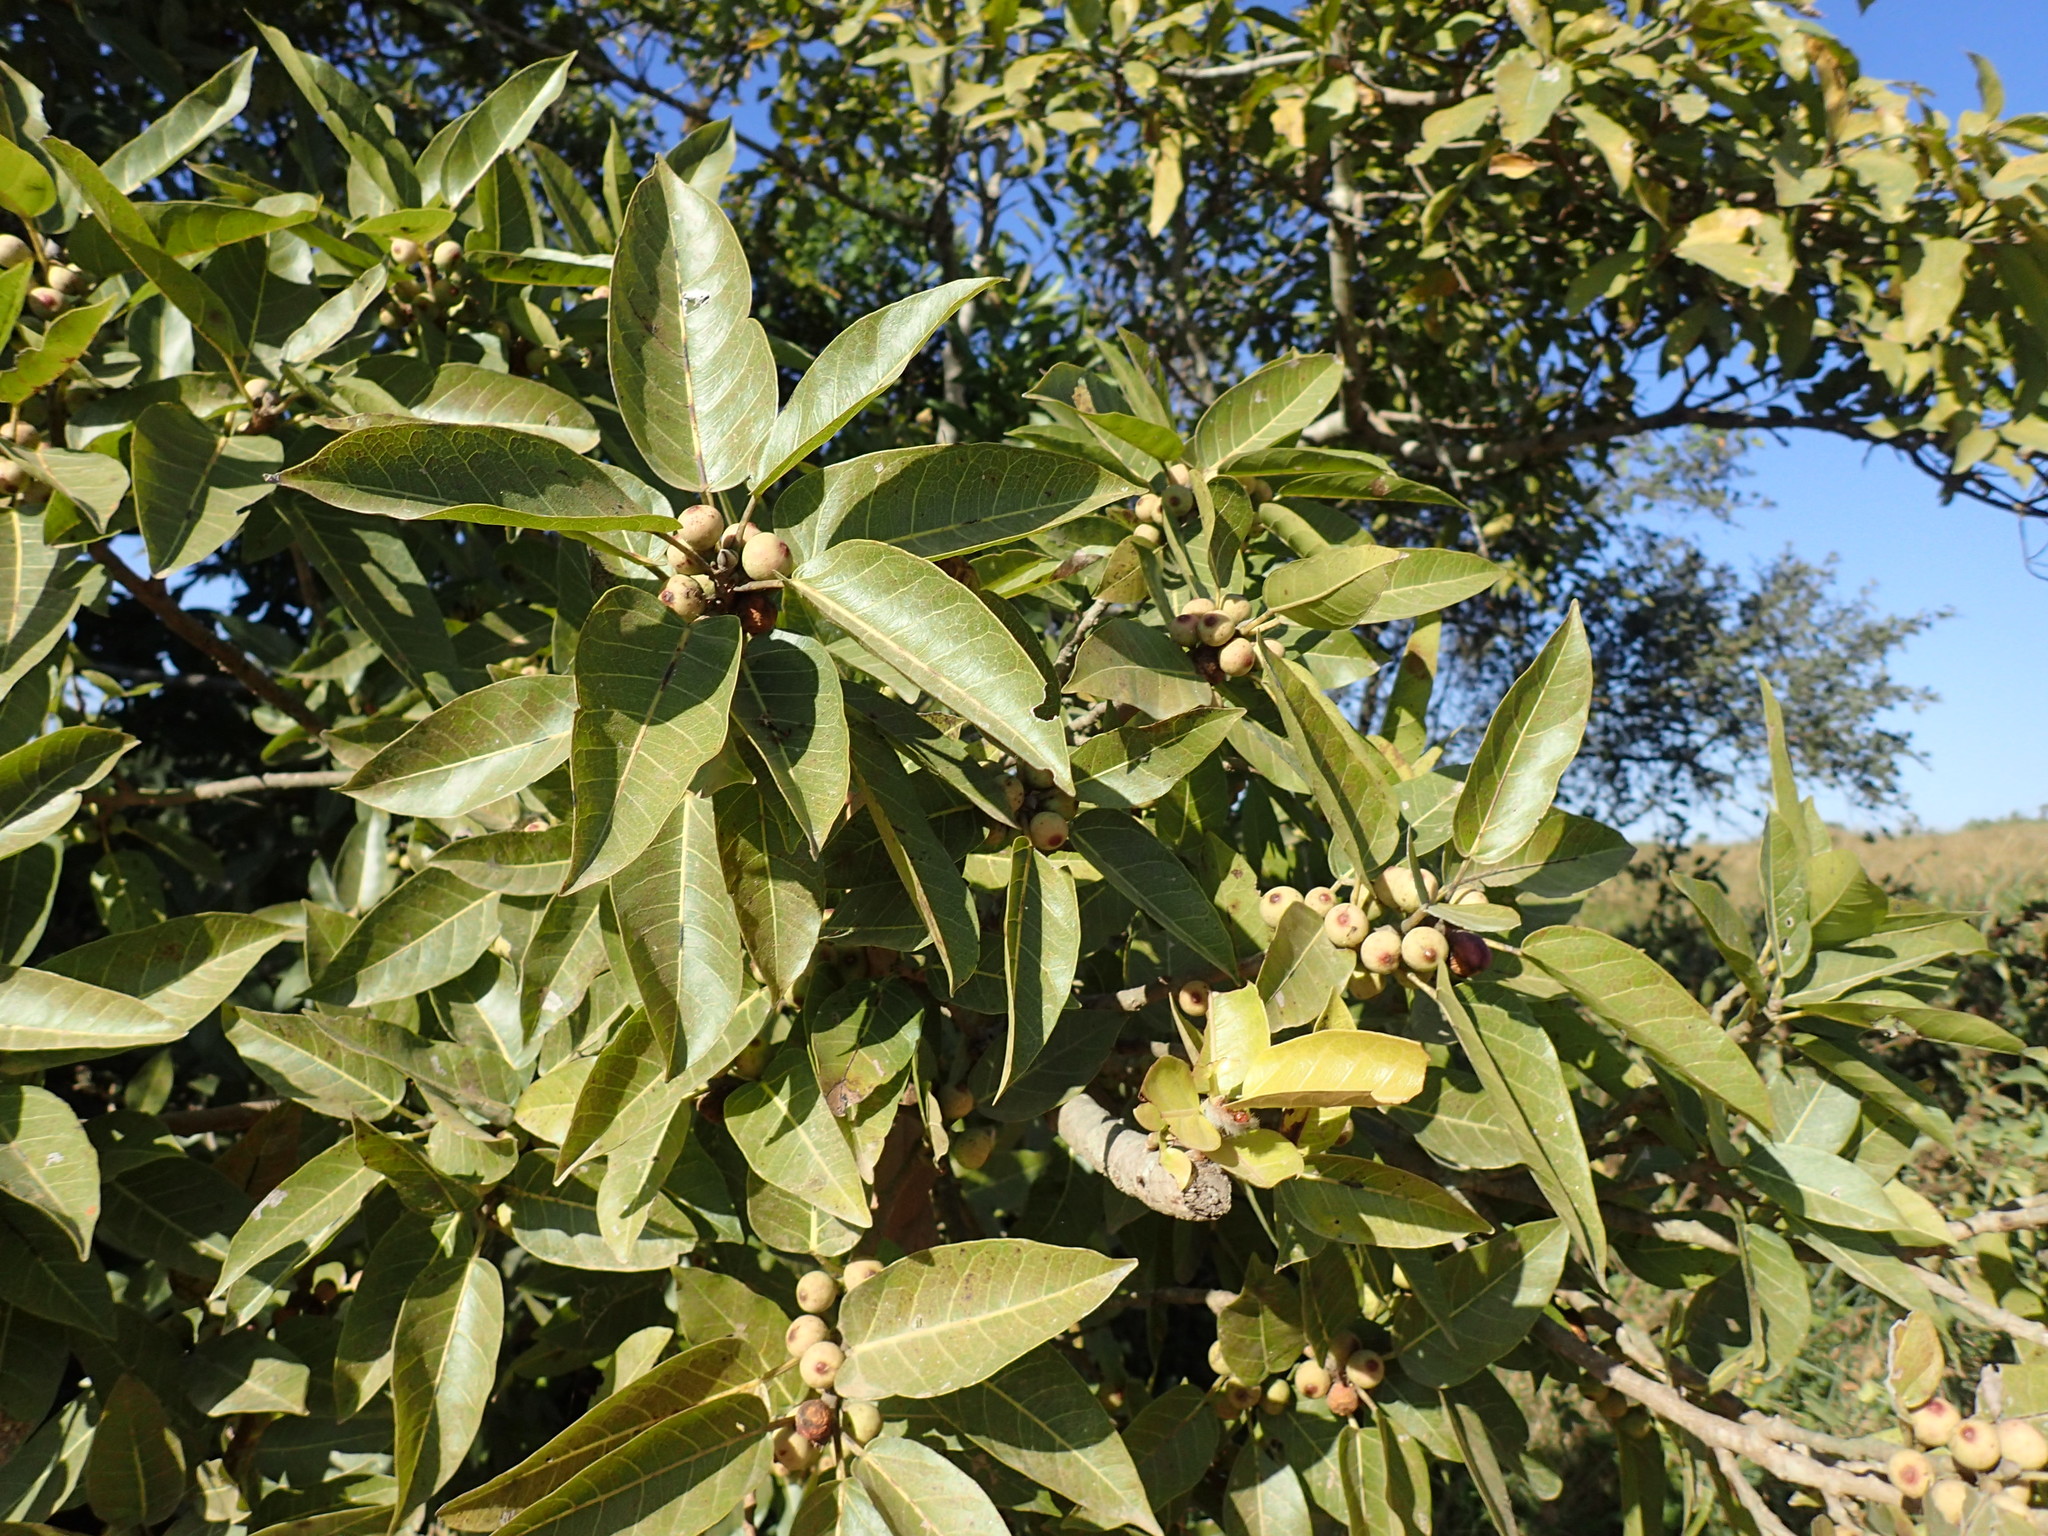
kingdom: Plantae
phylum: Tracheophyta
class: Magnoliopsida
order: Rosales
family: Moraceae
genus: Ficus
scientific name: Ficus ingens
